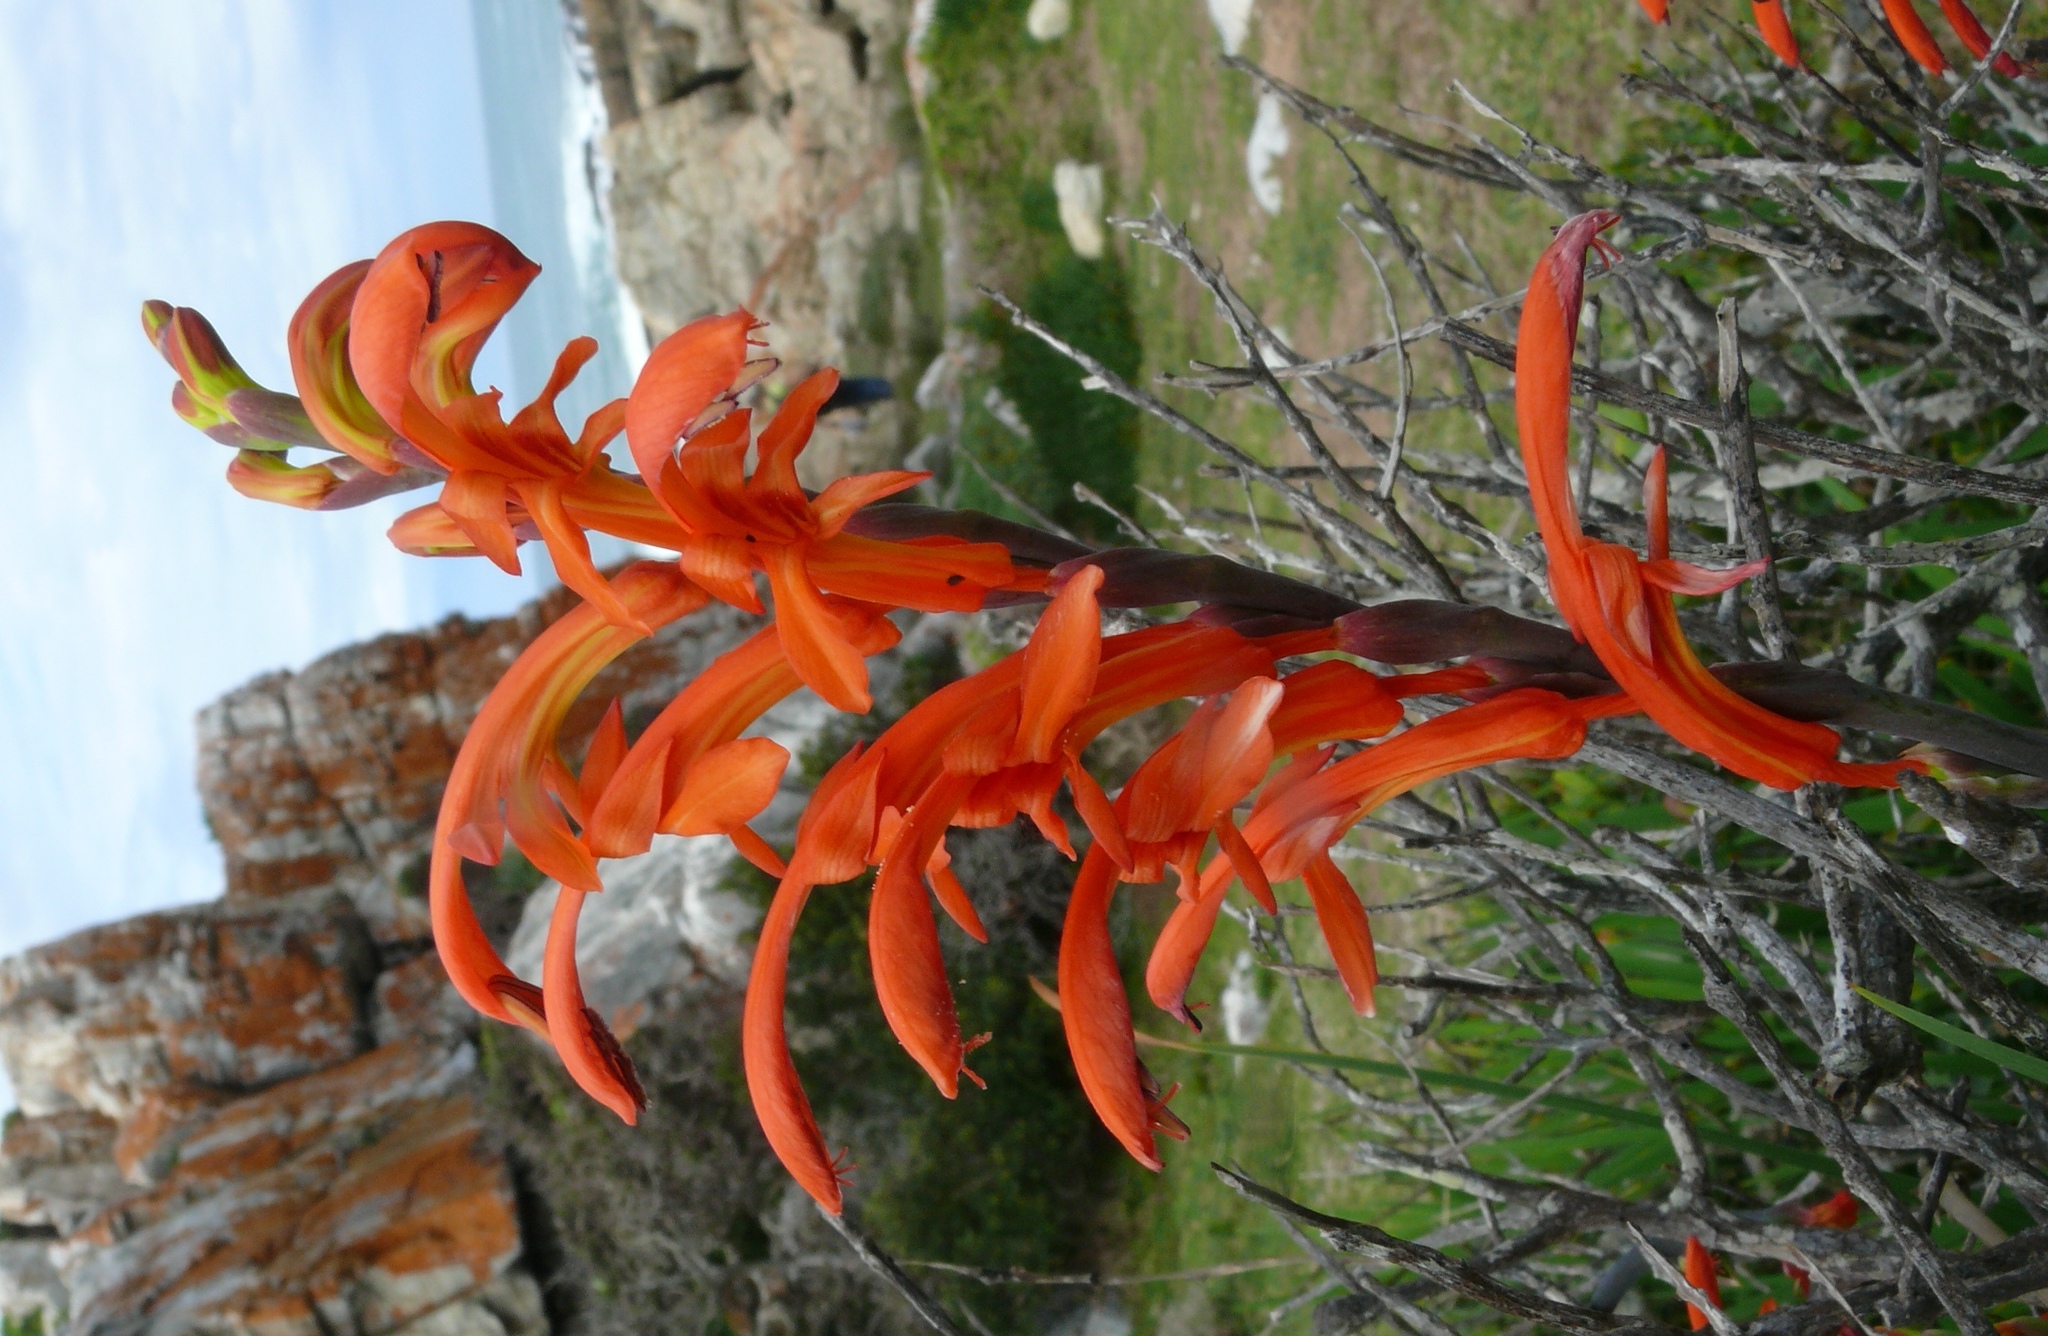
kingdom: Plantae
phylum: Tracheophyta
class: Liliopsida
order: Asparagales
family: Iridaceae
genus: Chasmanthe
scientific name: Chasmanthe aethiopica
